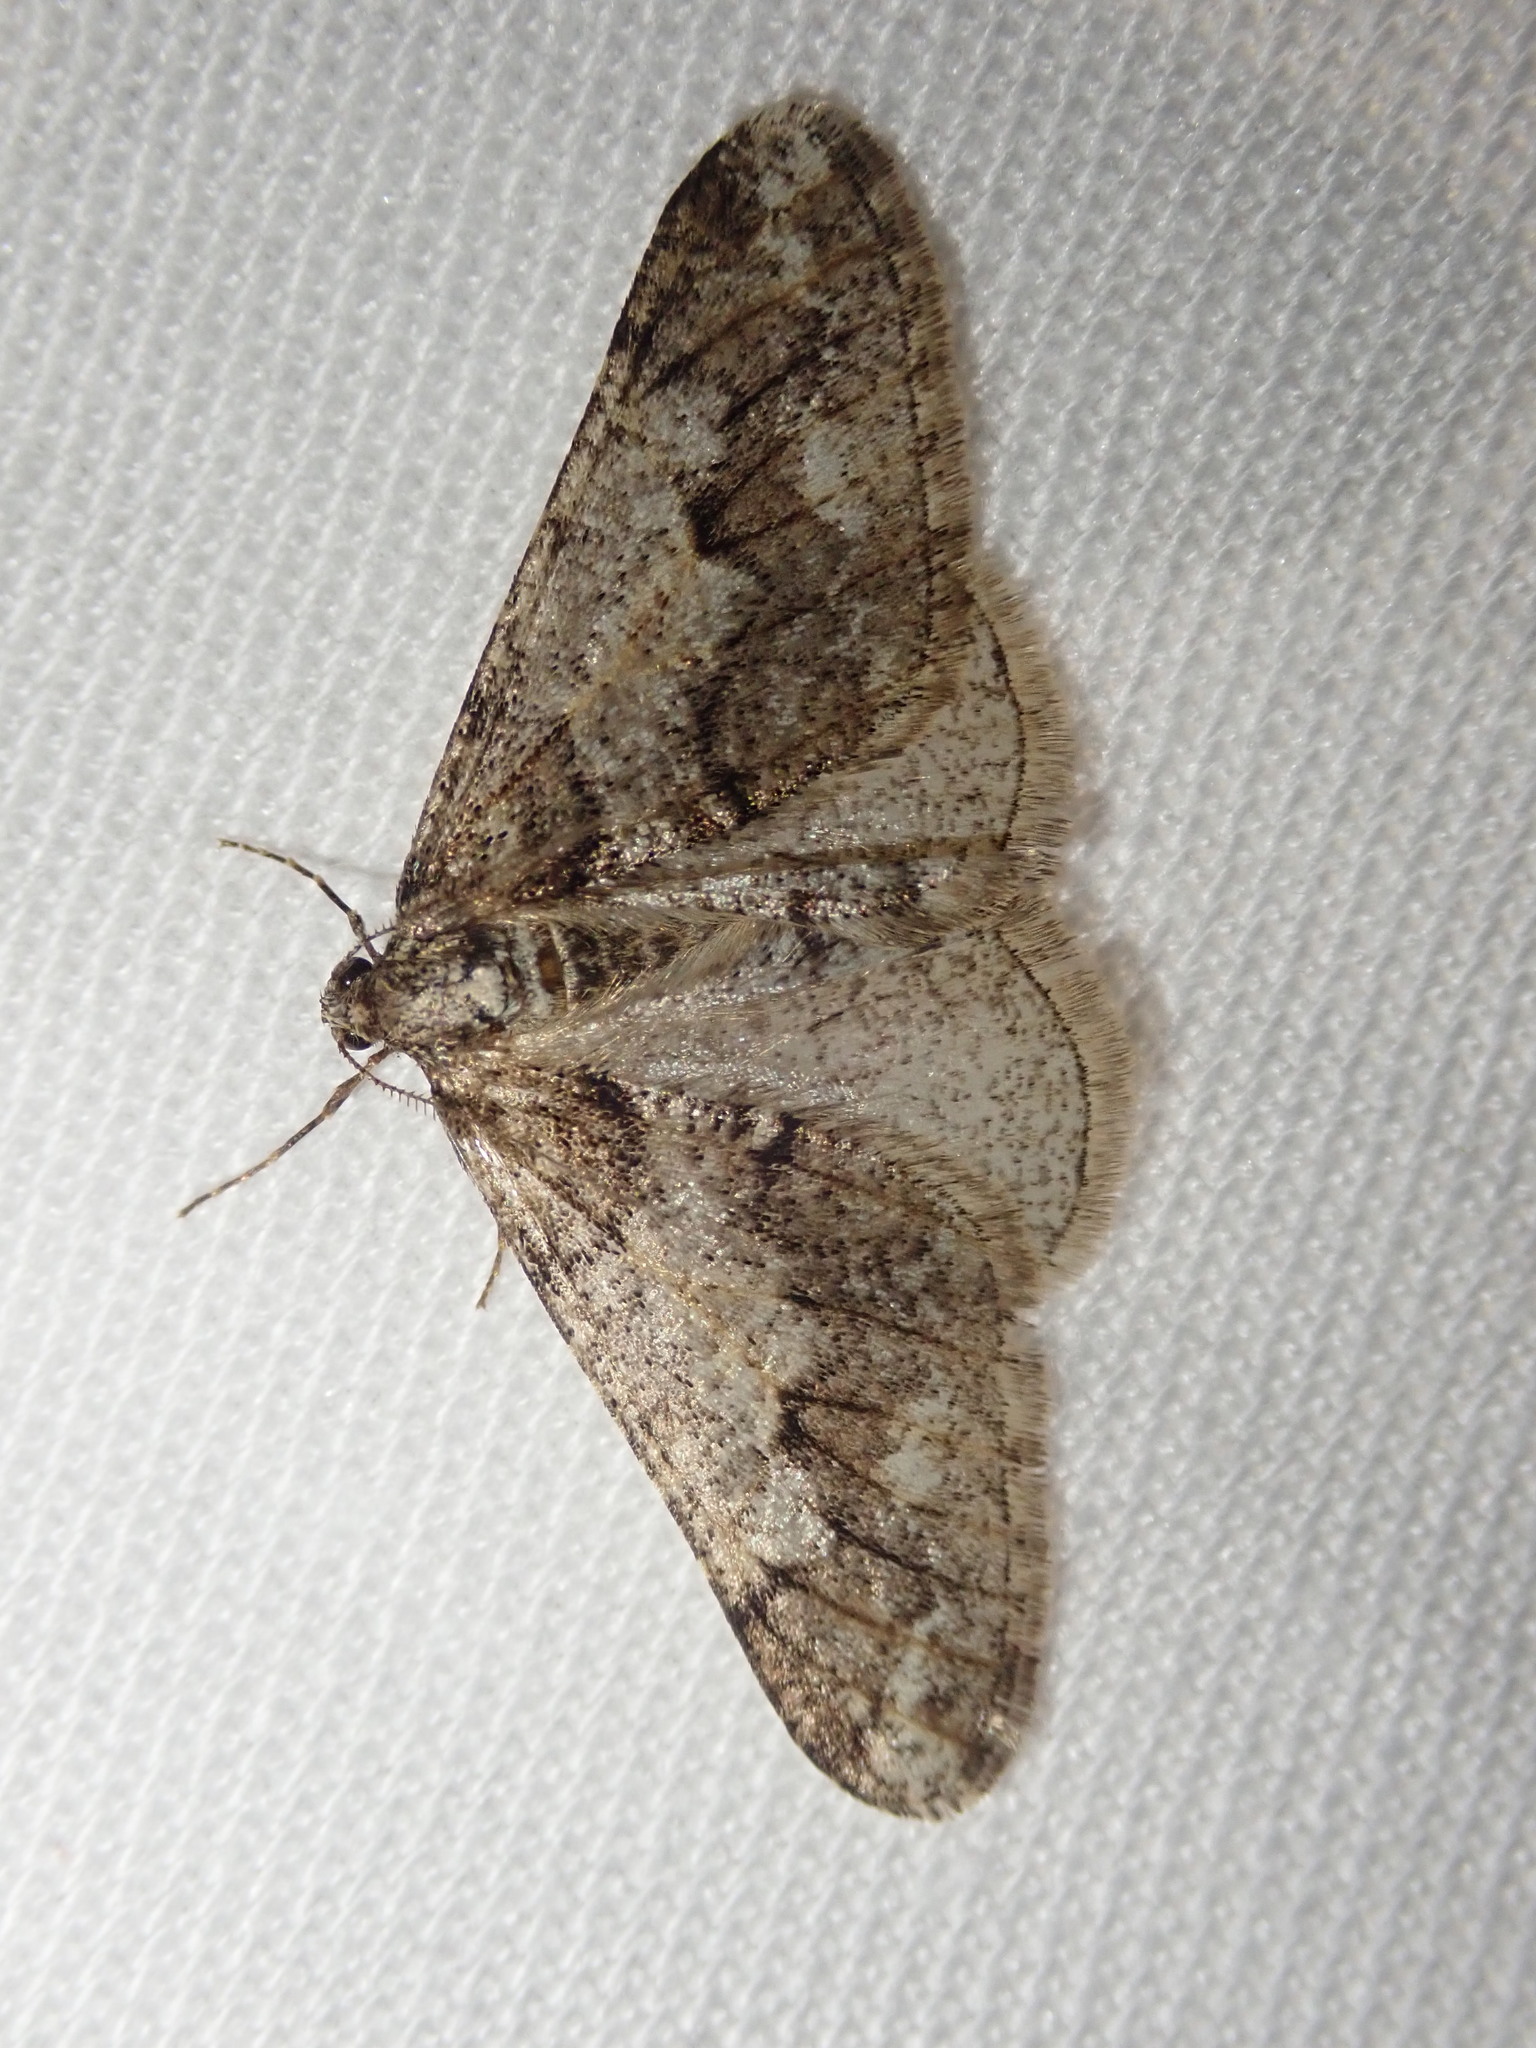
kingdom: Animalia
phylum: Arthropoda
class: Insecta
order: Lepidoptera
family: Geometridae
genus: Agriopis
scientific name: Agriopis leucophaearia
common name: Spring usher
